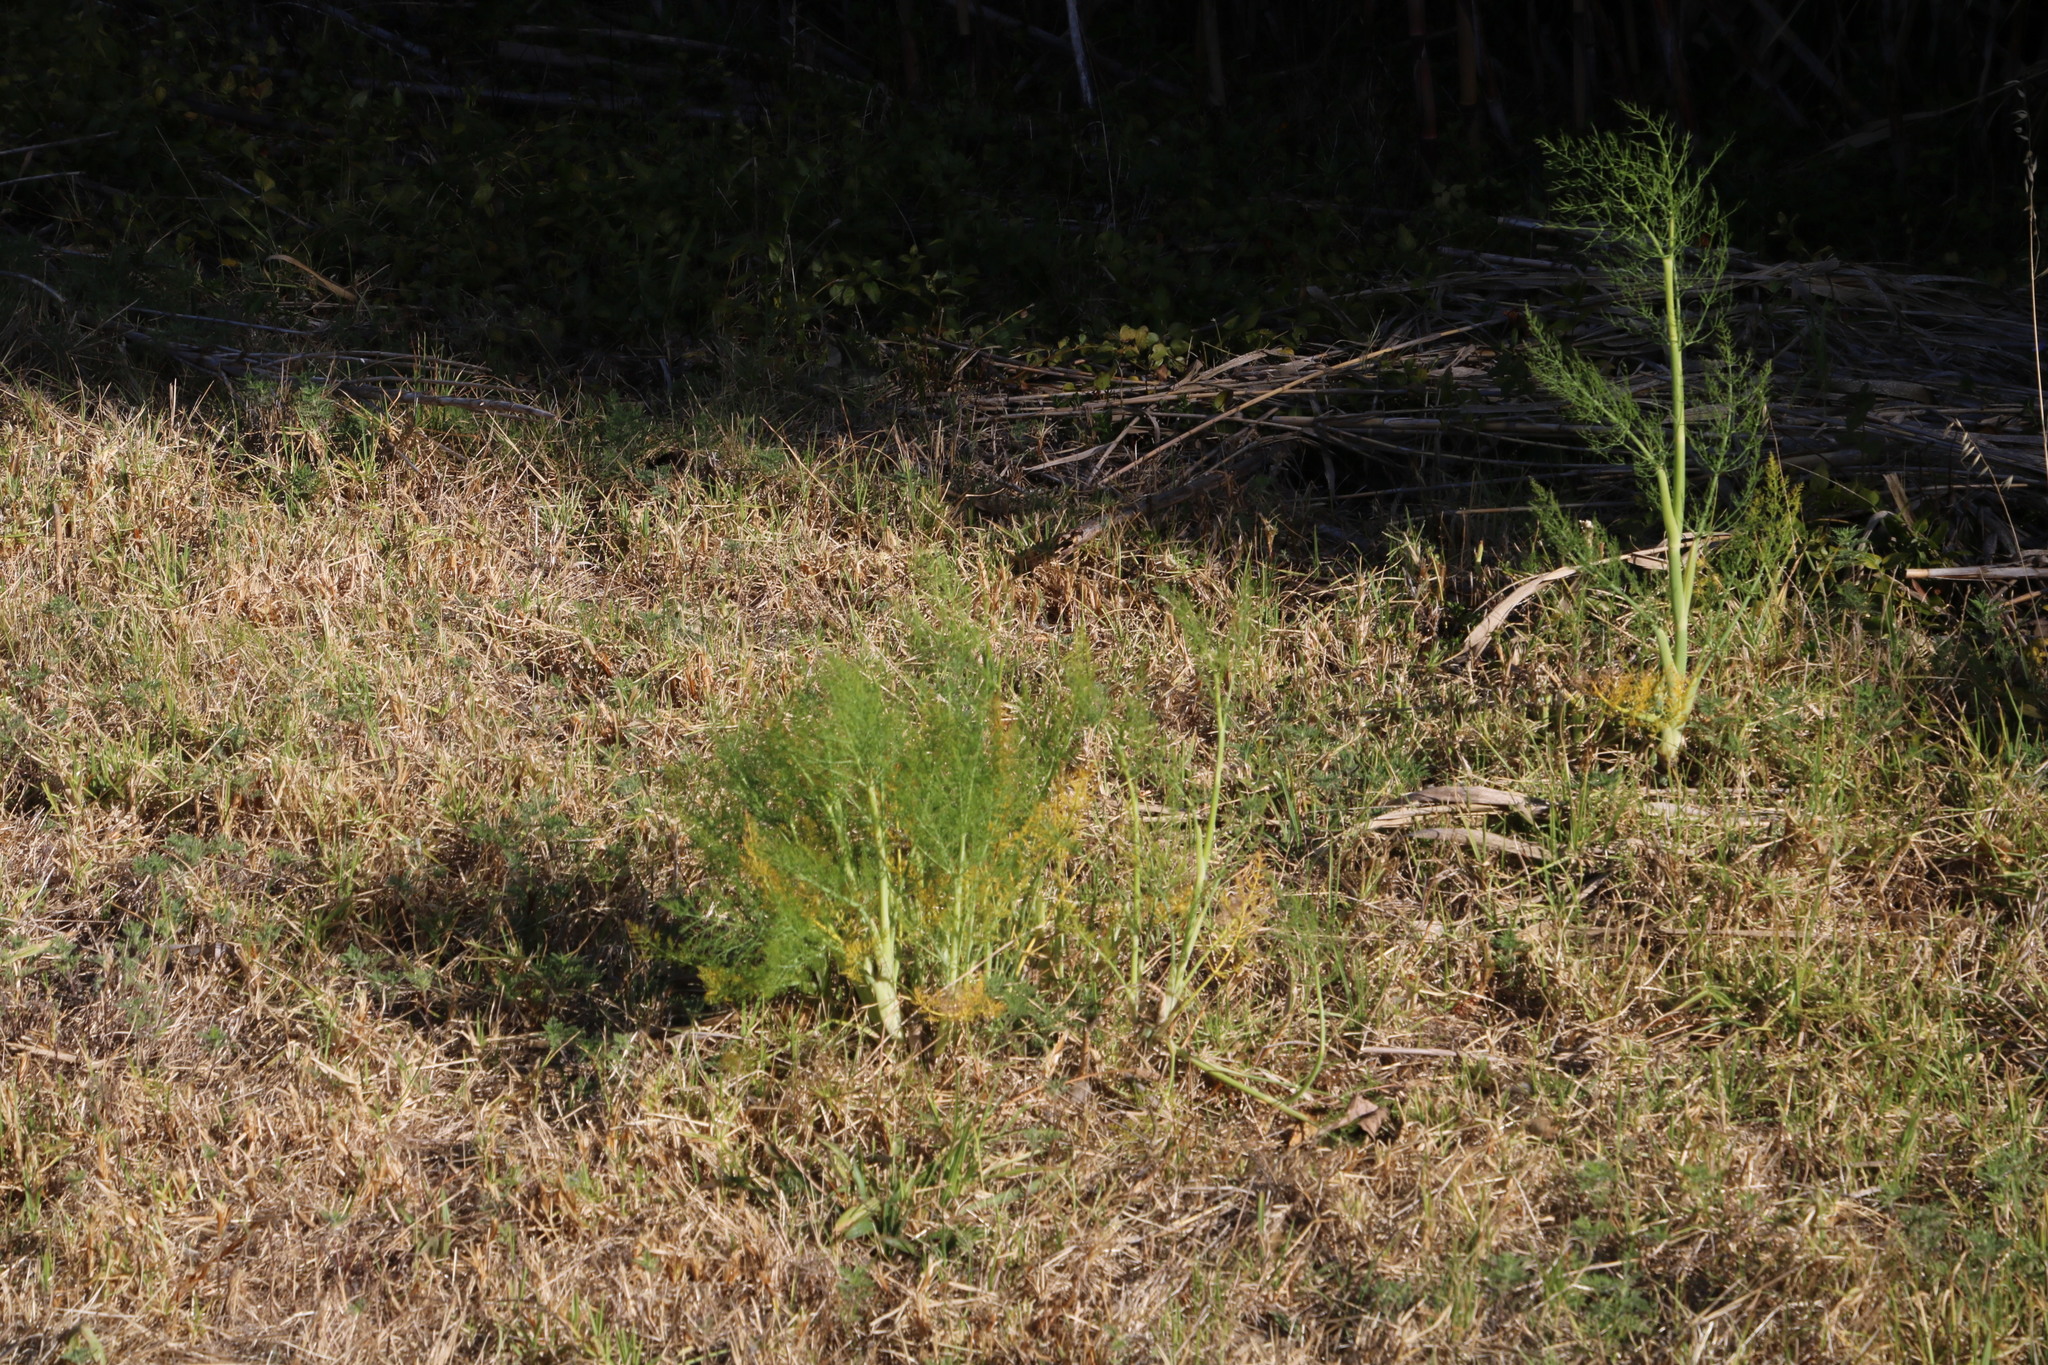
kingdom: Plantae
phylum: Tracheophyta
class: Magnoliopsida
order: Apiales
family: Apiaceae
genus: Foeniculum
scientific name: Foeniculum vulgare
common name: Fennel
